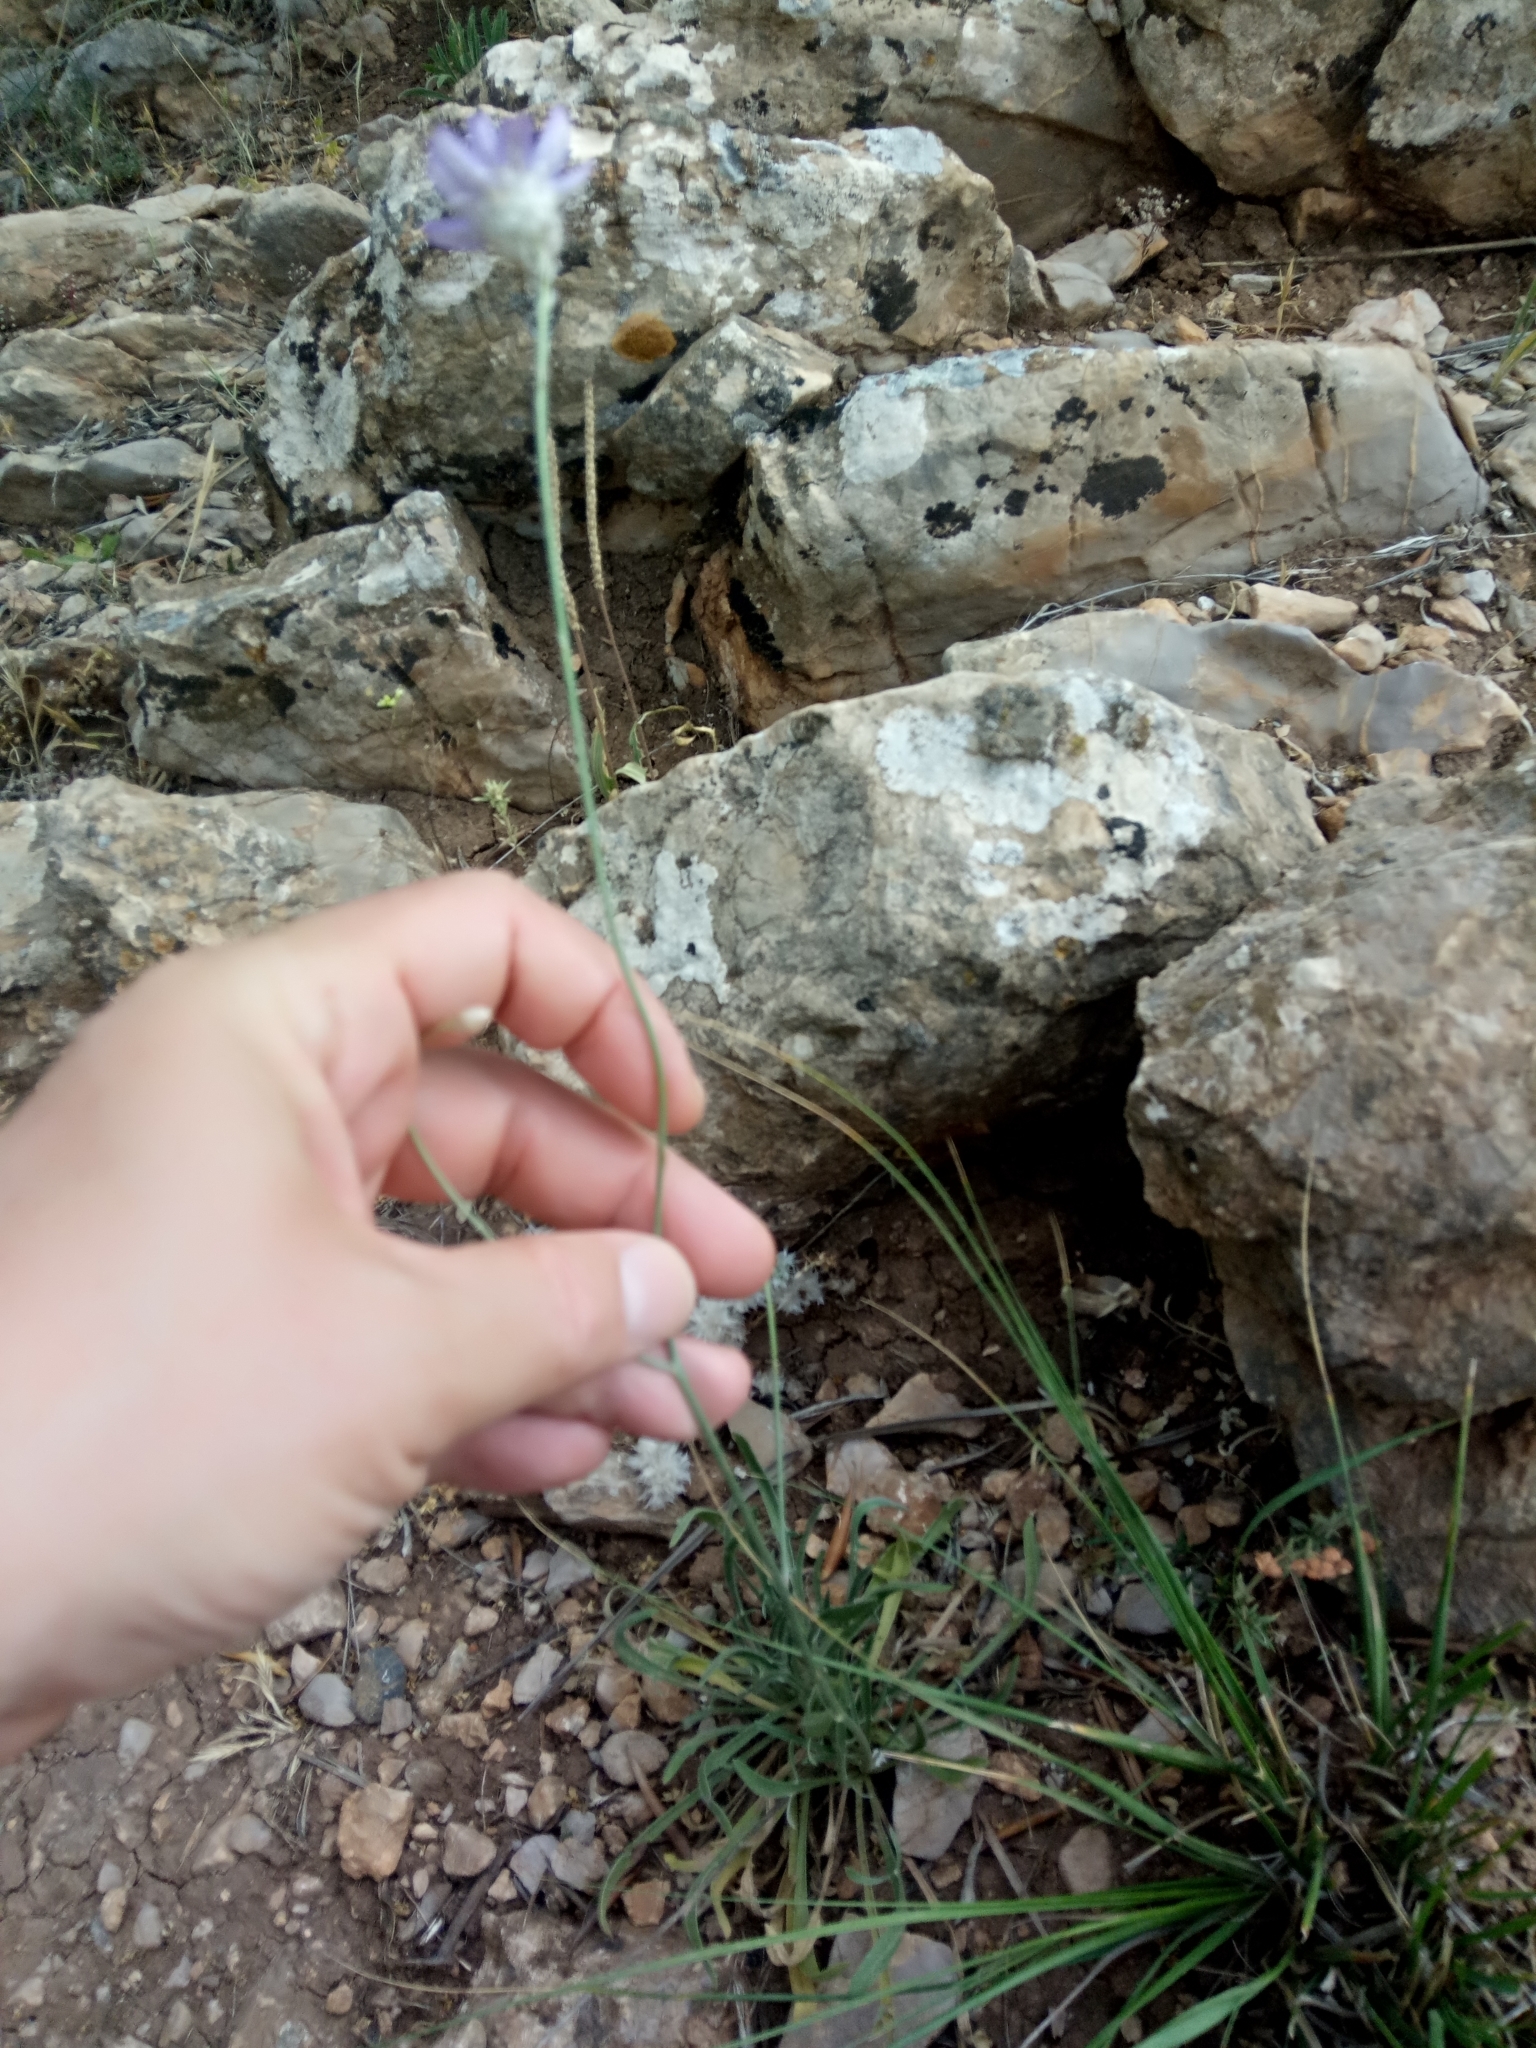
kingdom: Plantae
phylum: Tracheophyta
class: Magnoliopsida
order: Asterales
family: Asteraceae
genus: Catananche
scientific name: Catananche caerulea
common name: Blue cupidone
